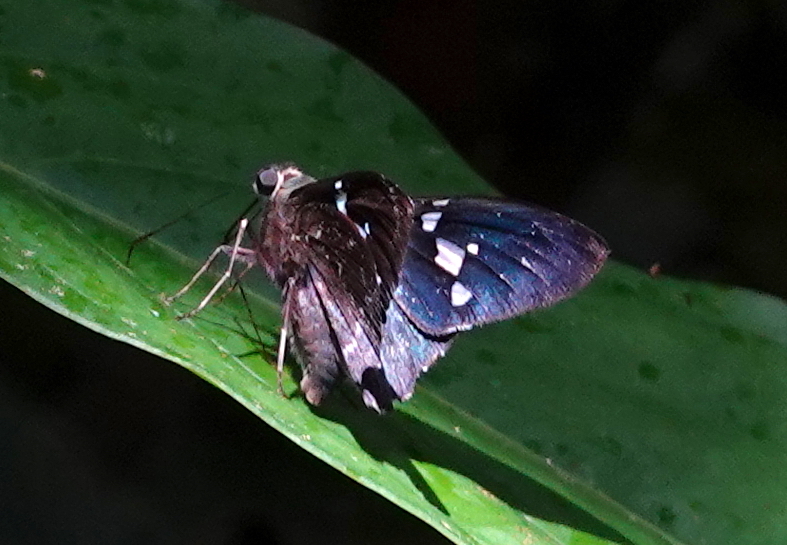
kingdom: Animalia
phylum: Arthropoda
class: Insecta
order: Lepidoptera
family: Hesperiidae
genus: Astraptes
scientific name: Astraptes enotrus
